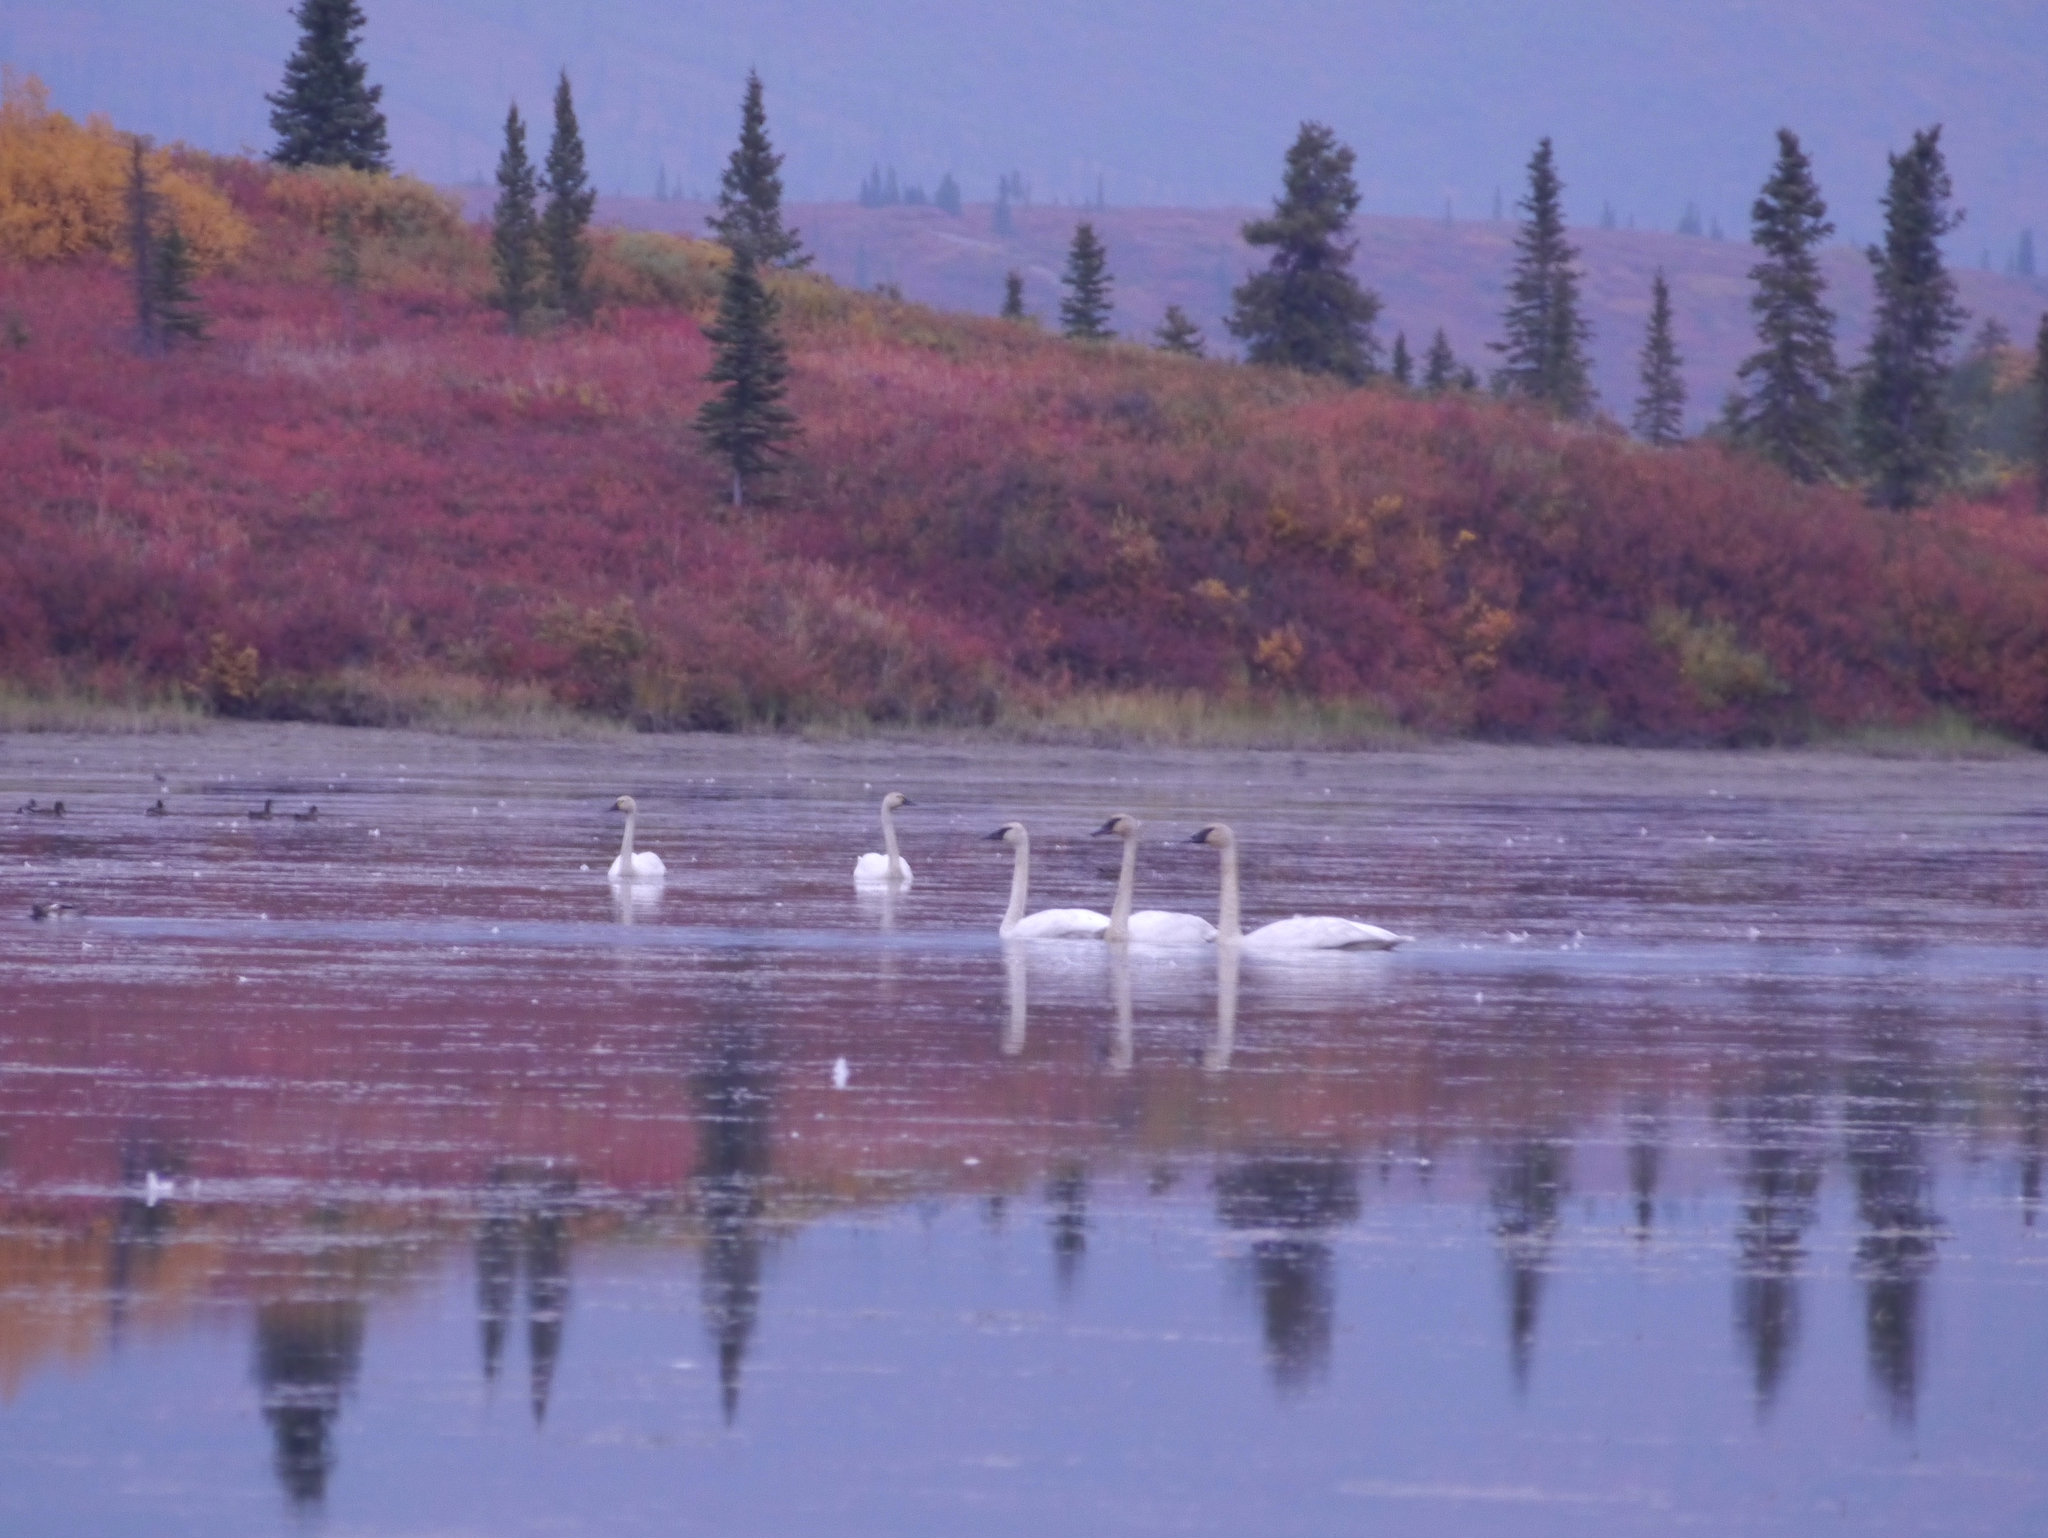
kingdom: Animalia
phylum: Chordata
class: Aves
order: Anseriformes
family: Anatidae
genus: Cygnus
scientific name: Cygnus columbianus
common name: Tundra swan
